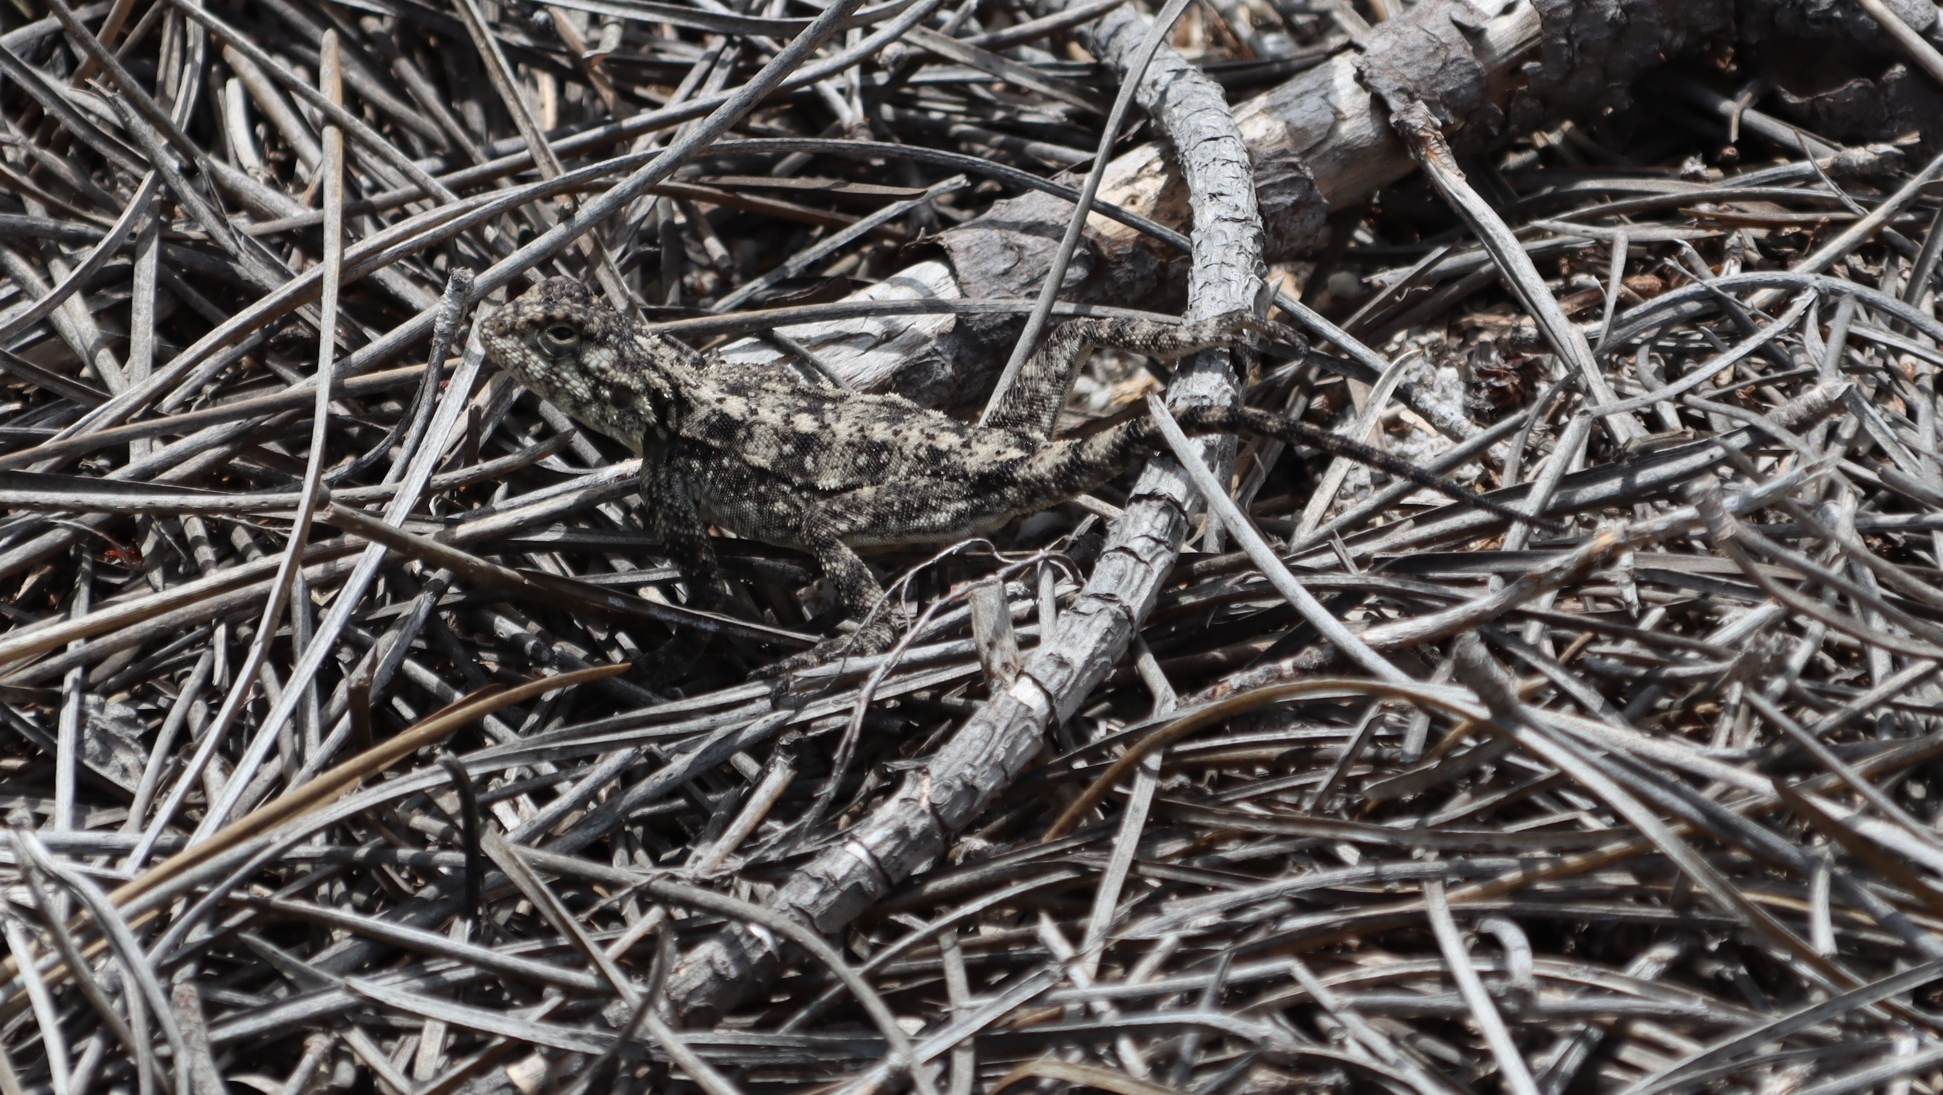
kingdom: Animalia
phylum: Chordata
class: Squamata
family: Agamidae
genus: Agama
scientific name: Agama atra
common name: Southern african rock agama
